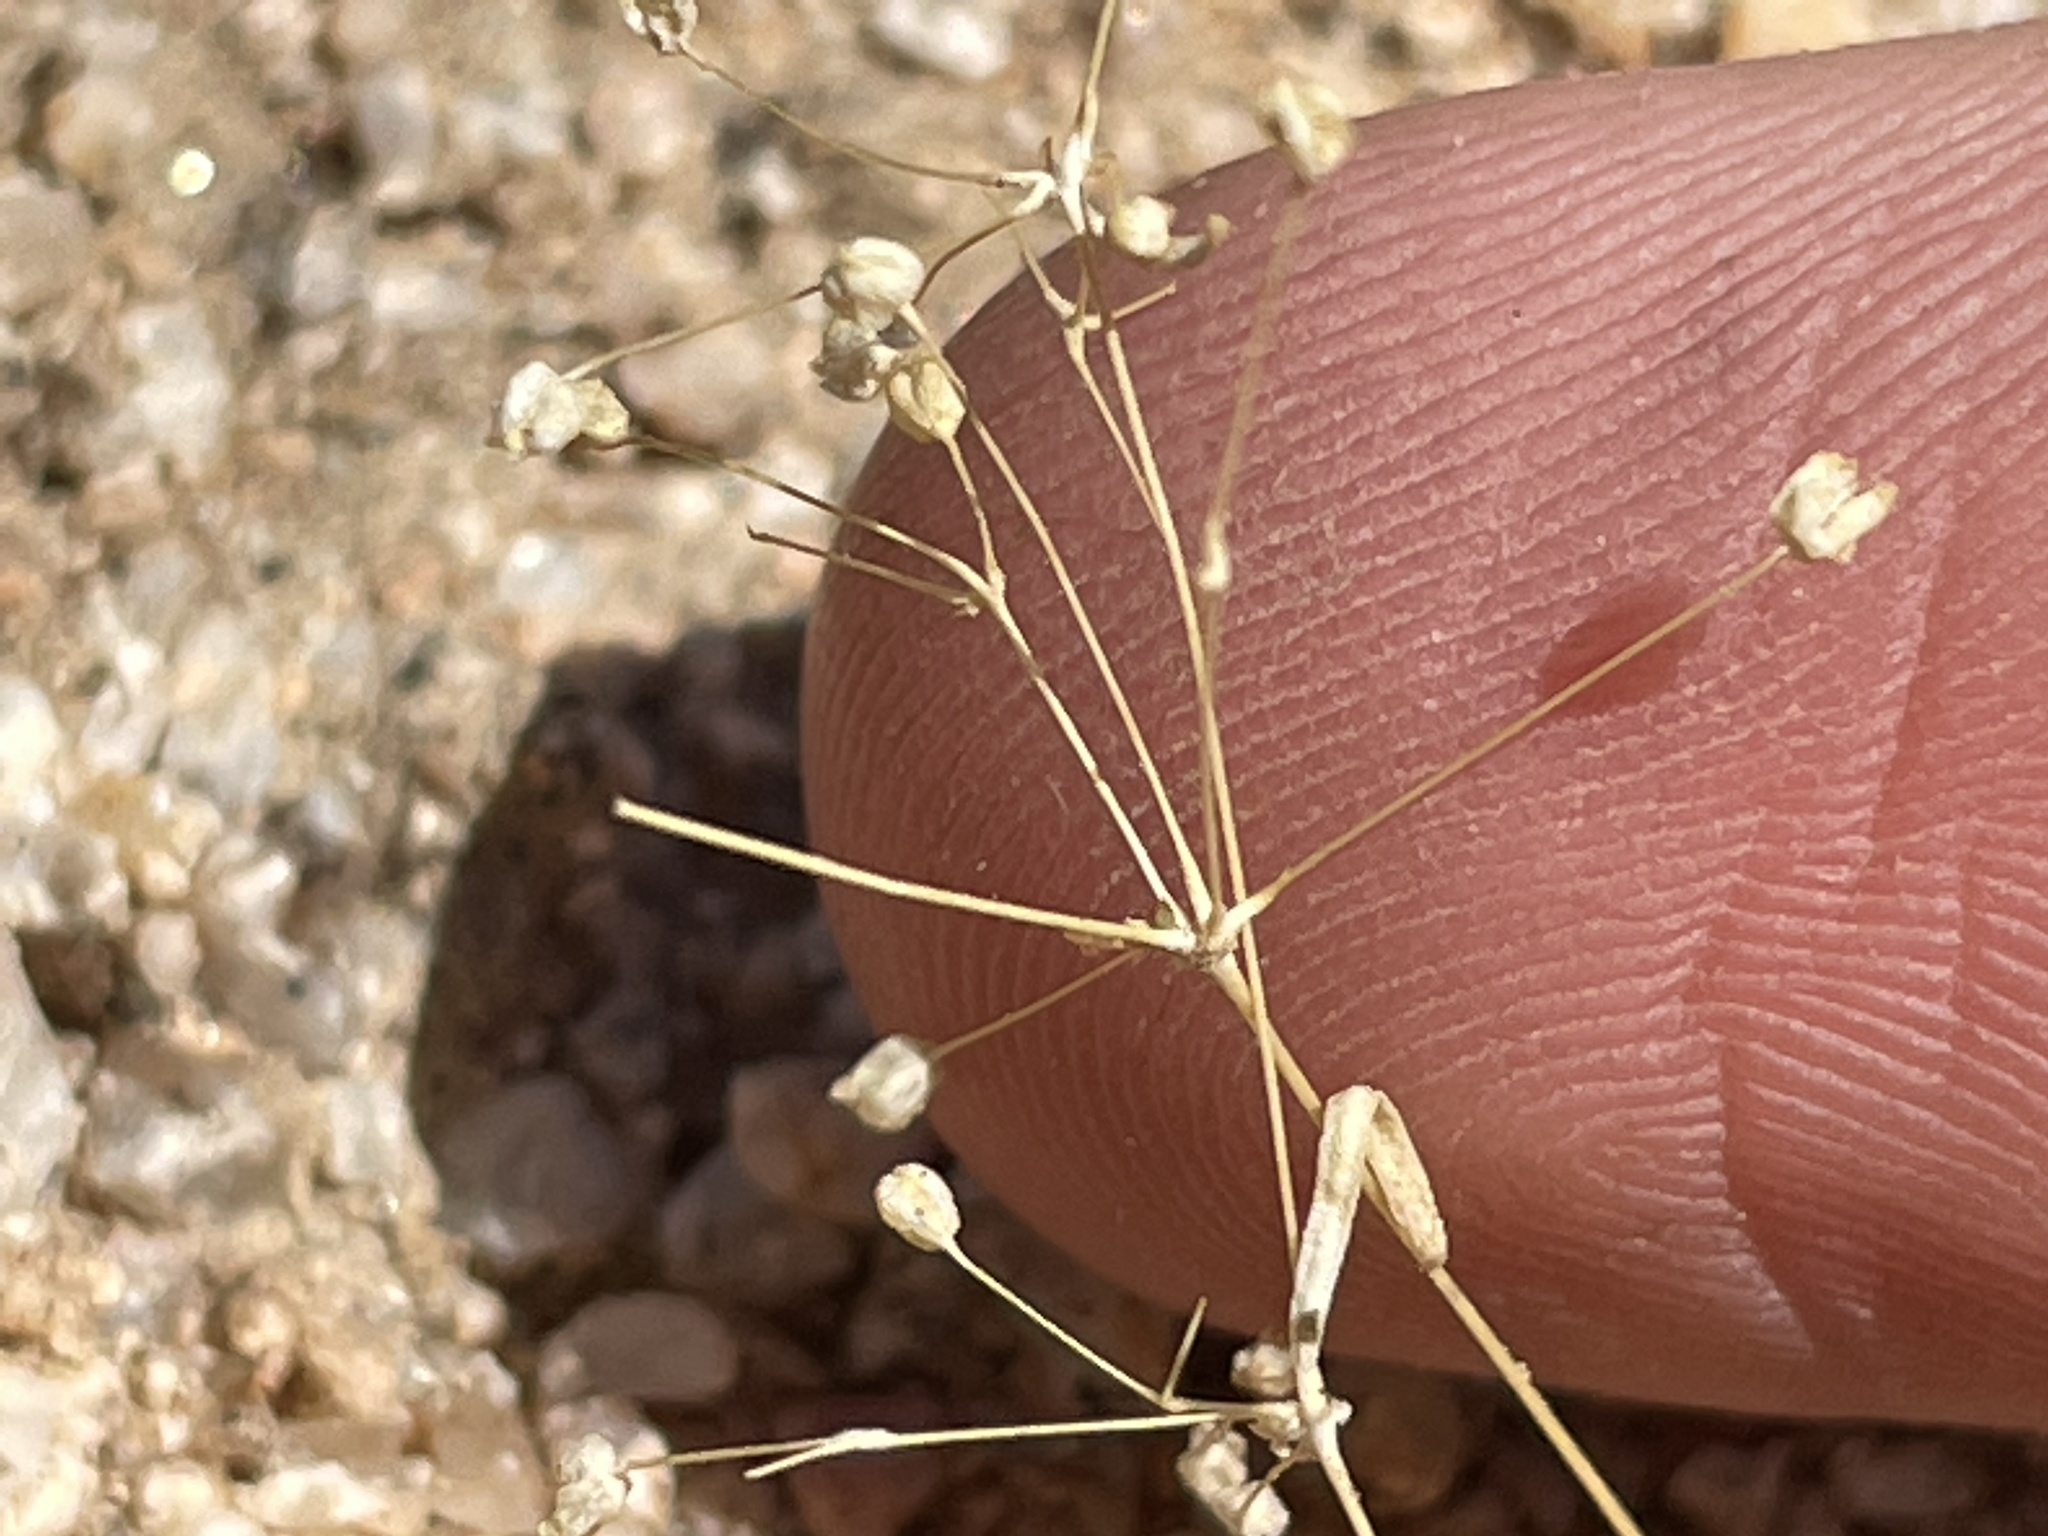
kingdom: Plantae
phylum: Tracheophyta
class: Magnoliopsida
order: Caryophyllales
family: Molluginaceae
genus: Hypertelis
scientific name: Hypertelis umbellata
